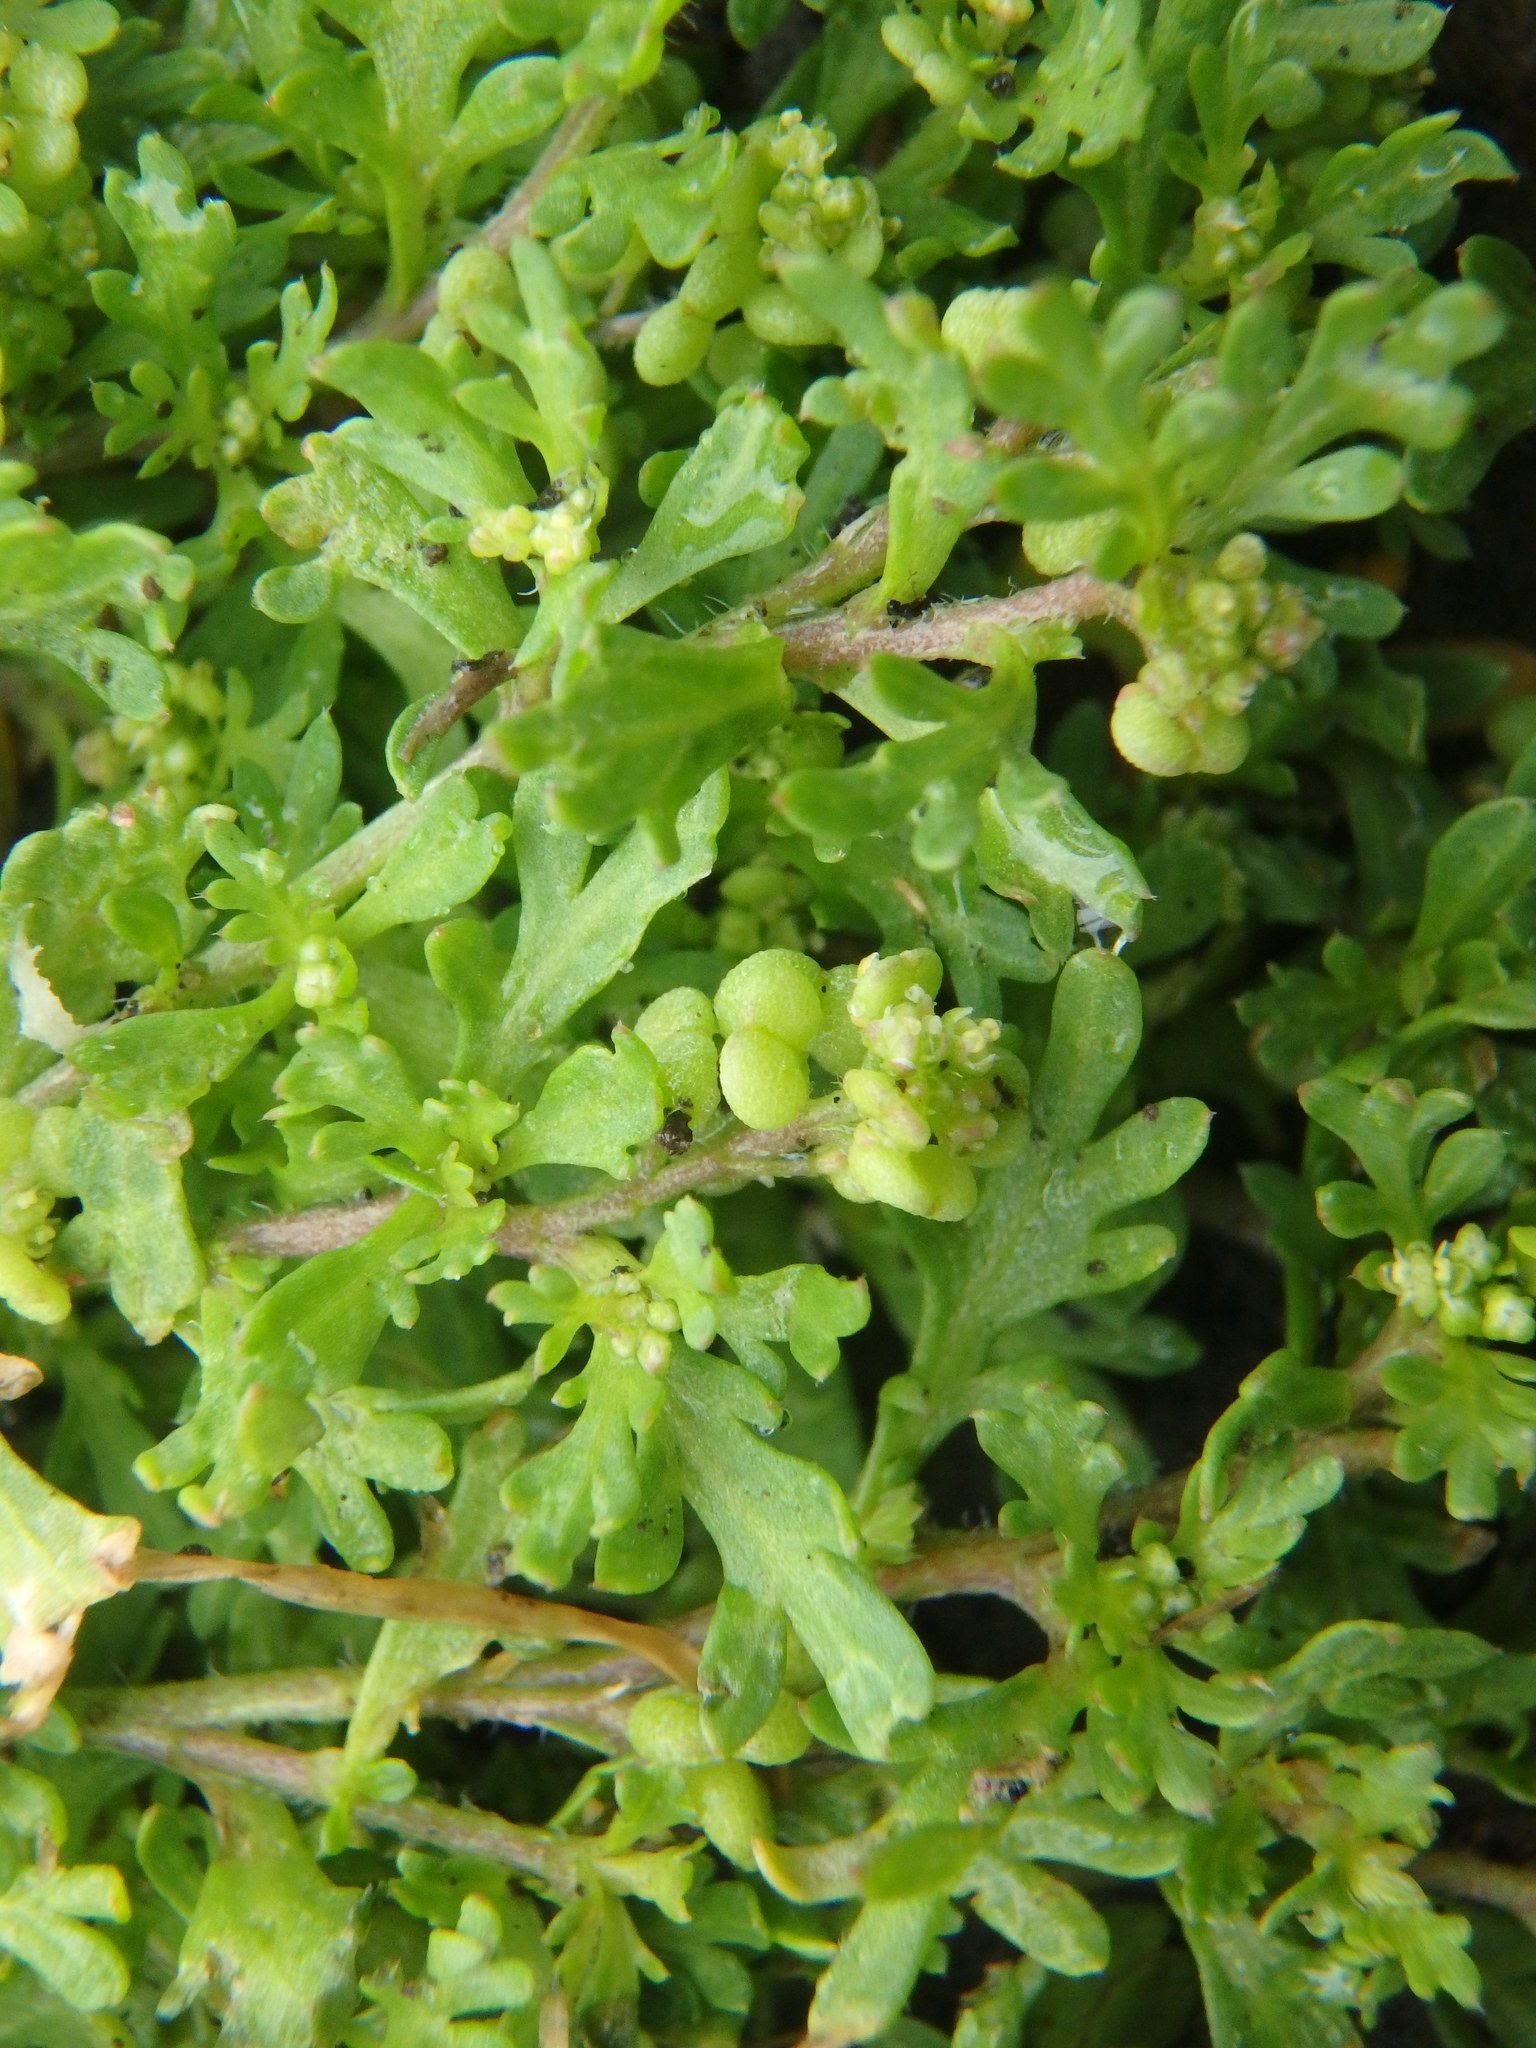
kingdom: Plantae
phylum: Tracheophyta
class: Magnoliopsida
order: Brassicales
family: Brassicaceae
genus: Lepidium
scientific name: Lepidium didymum
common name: Lesser swinecress
